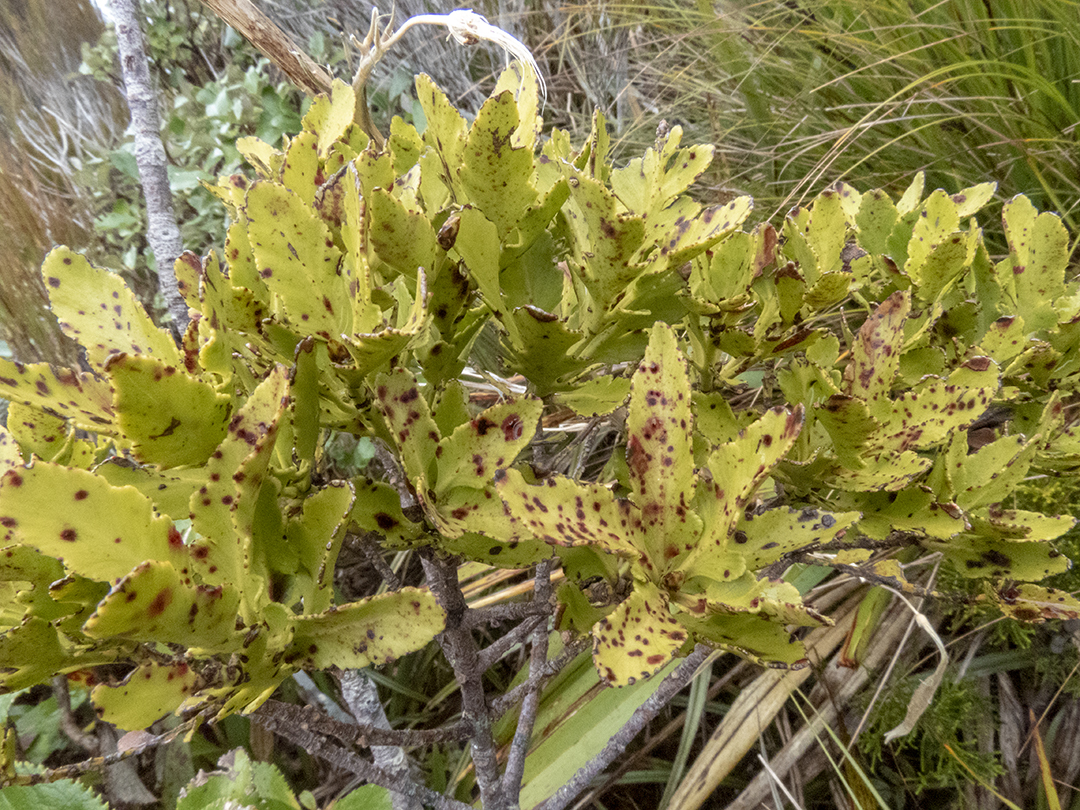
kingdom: Plantae
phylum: Tracheophyta
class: Pinopsida
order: Pinales
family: Phyllocladaceae
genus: Phyllocladus
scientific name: Phyllocladus trichomanoides
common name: Celery pine
